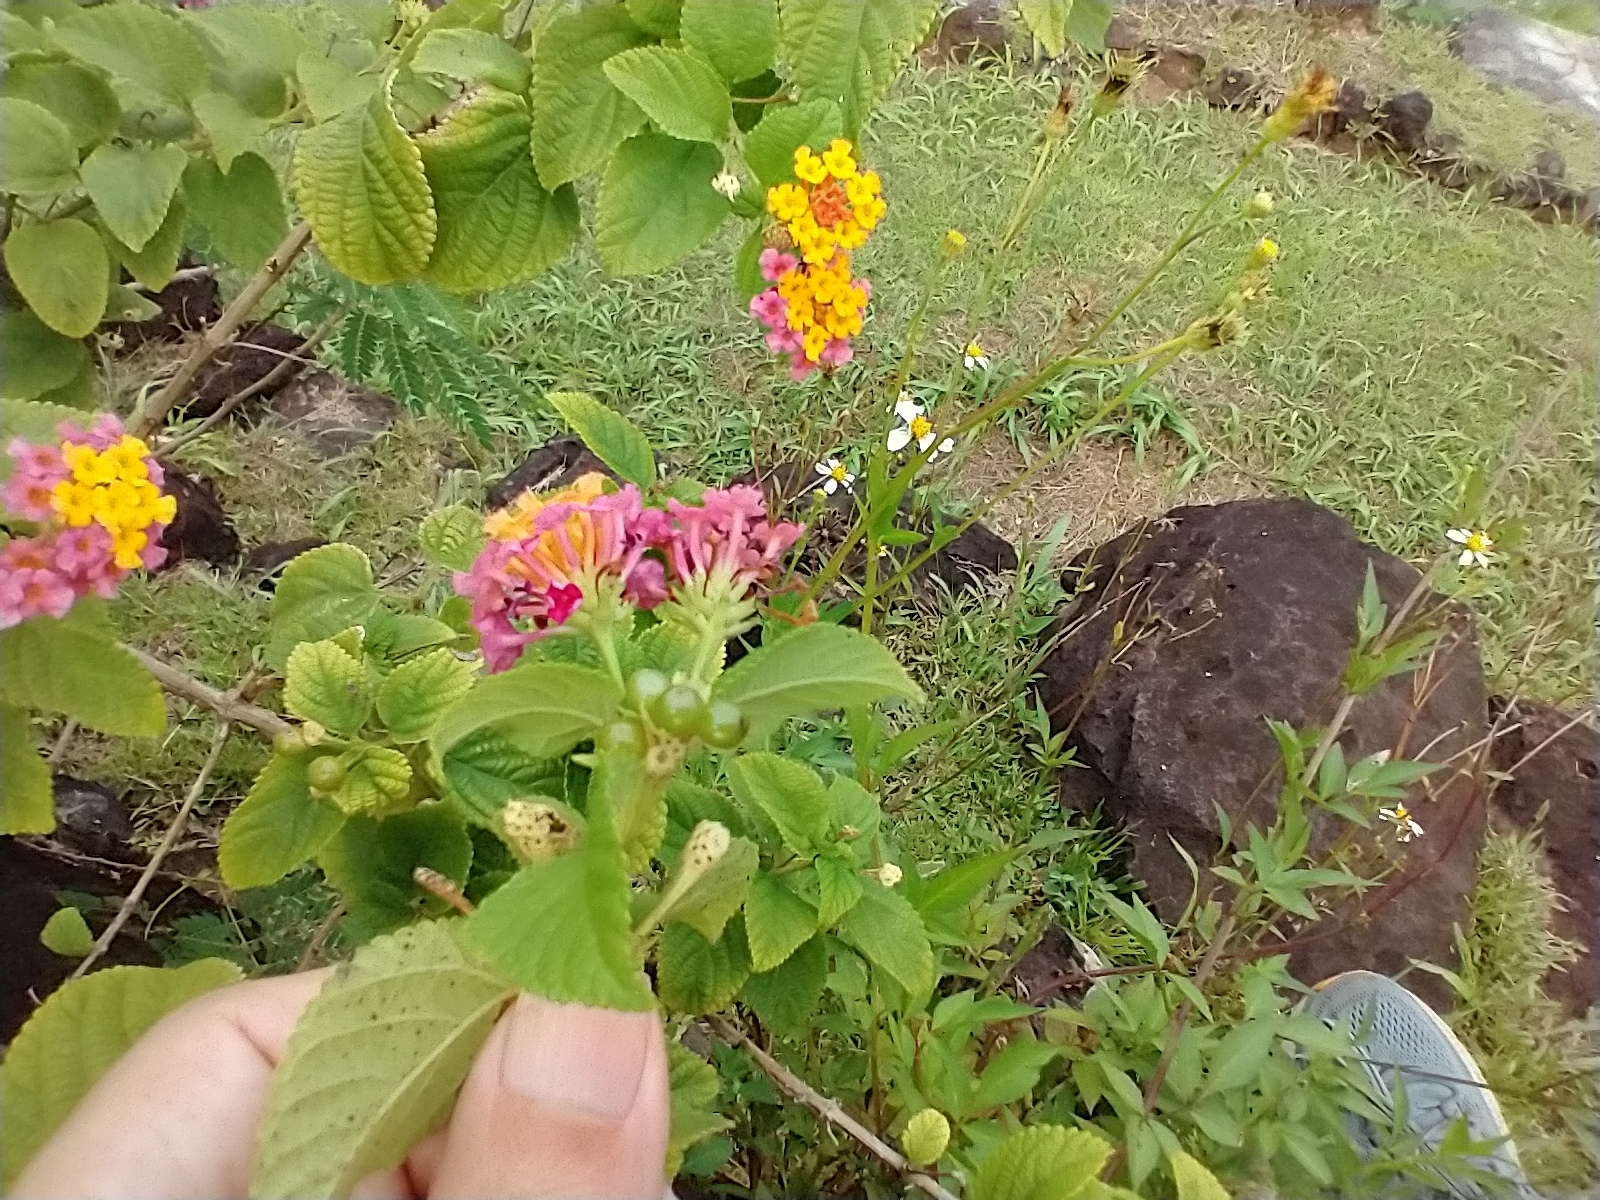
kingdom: Plantae
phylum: Tracheophyta
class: Magnoliopsida
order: Lamiales
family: Verbenaceae
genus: Lantana
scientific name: Lantana camara
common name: Lantana
